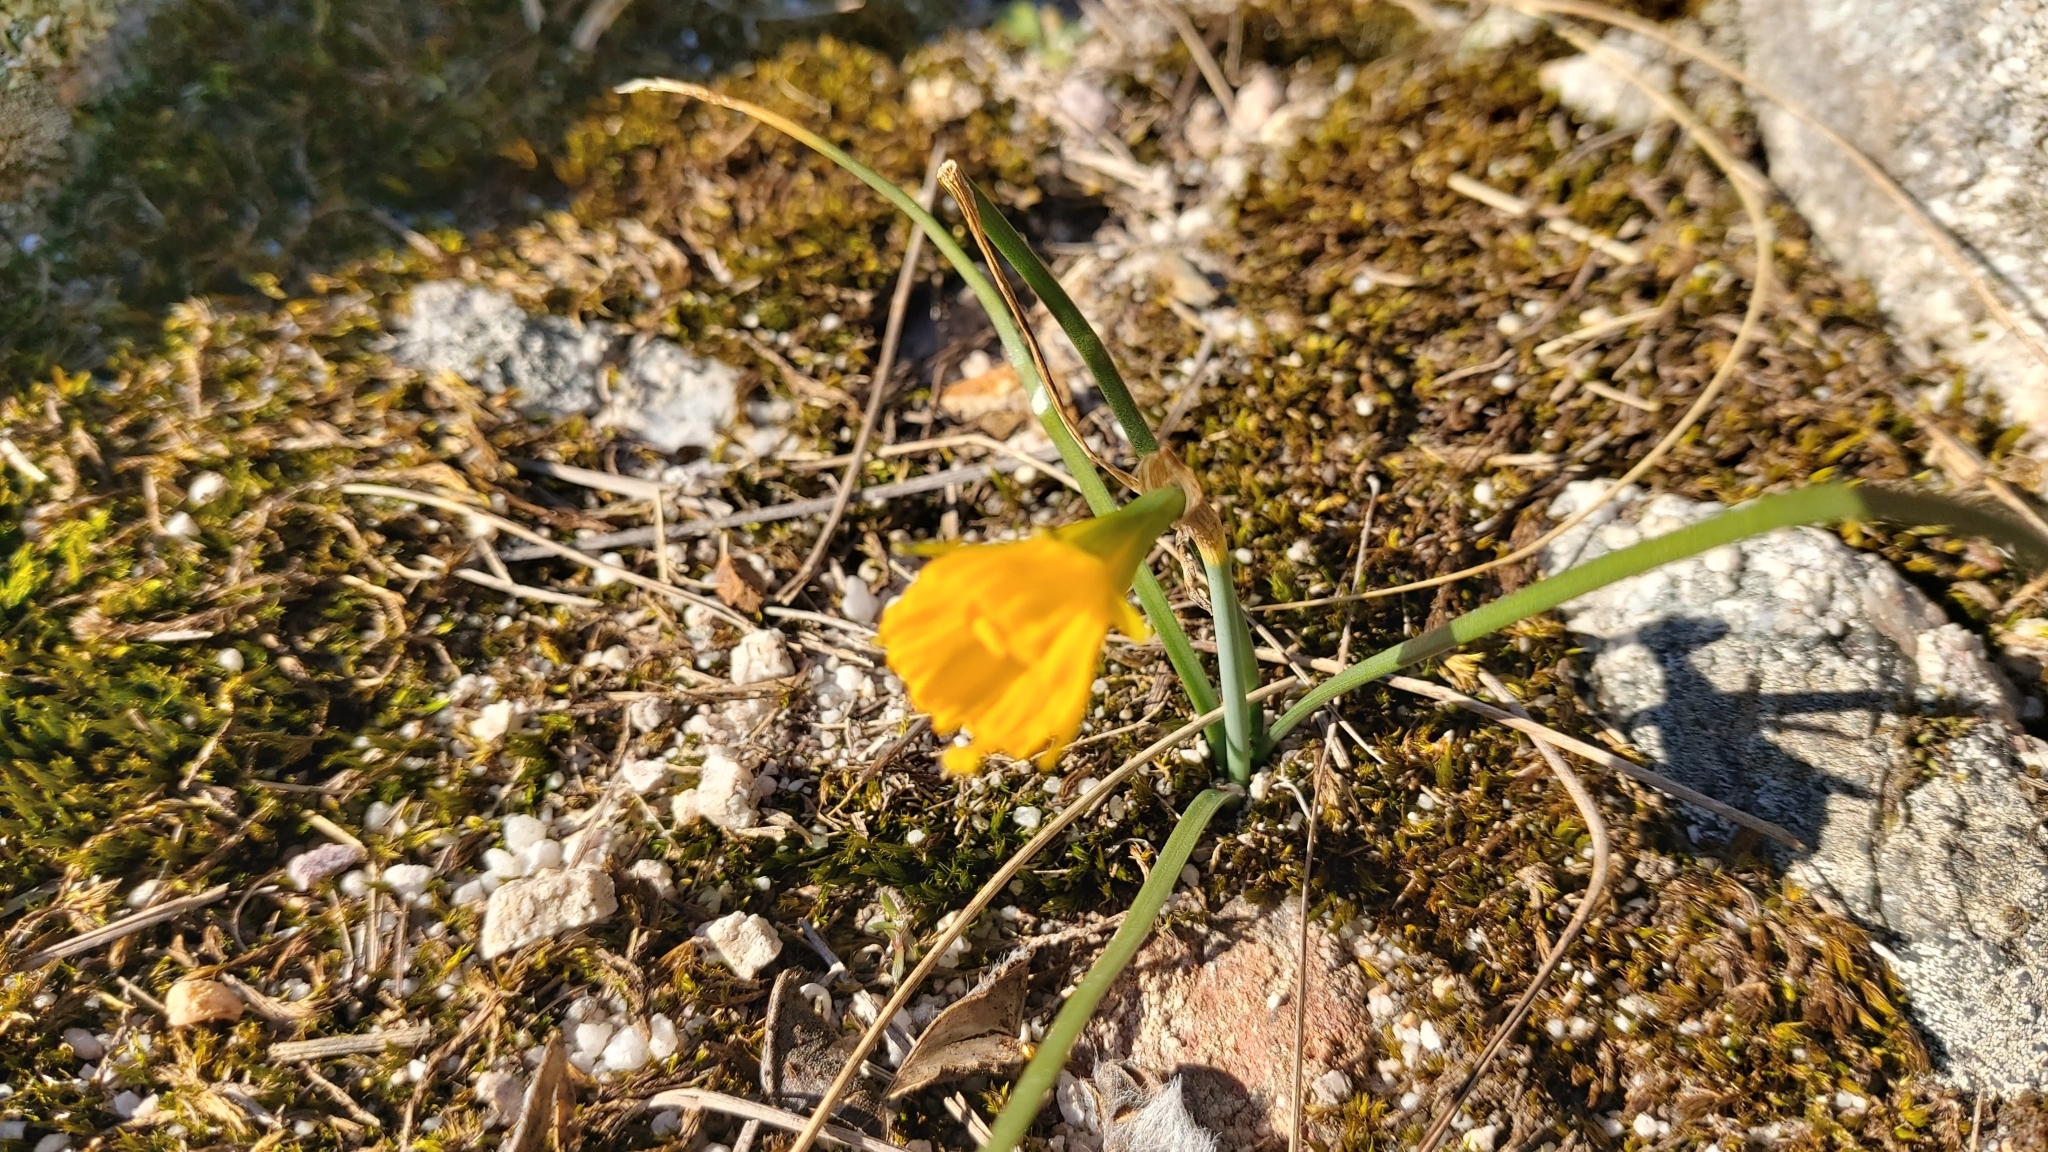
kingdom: Plantae
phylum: Tracheophyta
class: Liliopsida
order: Asparagales
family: Amaryllidaceae
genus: Narcissus
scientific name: Narcissus bulbocodium
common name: Hoop-petticoat daffodil
